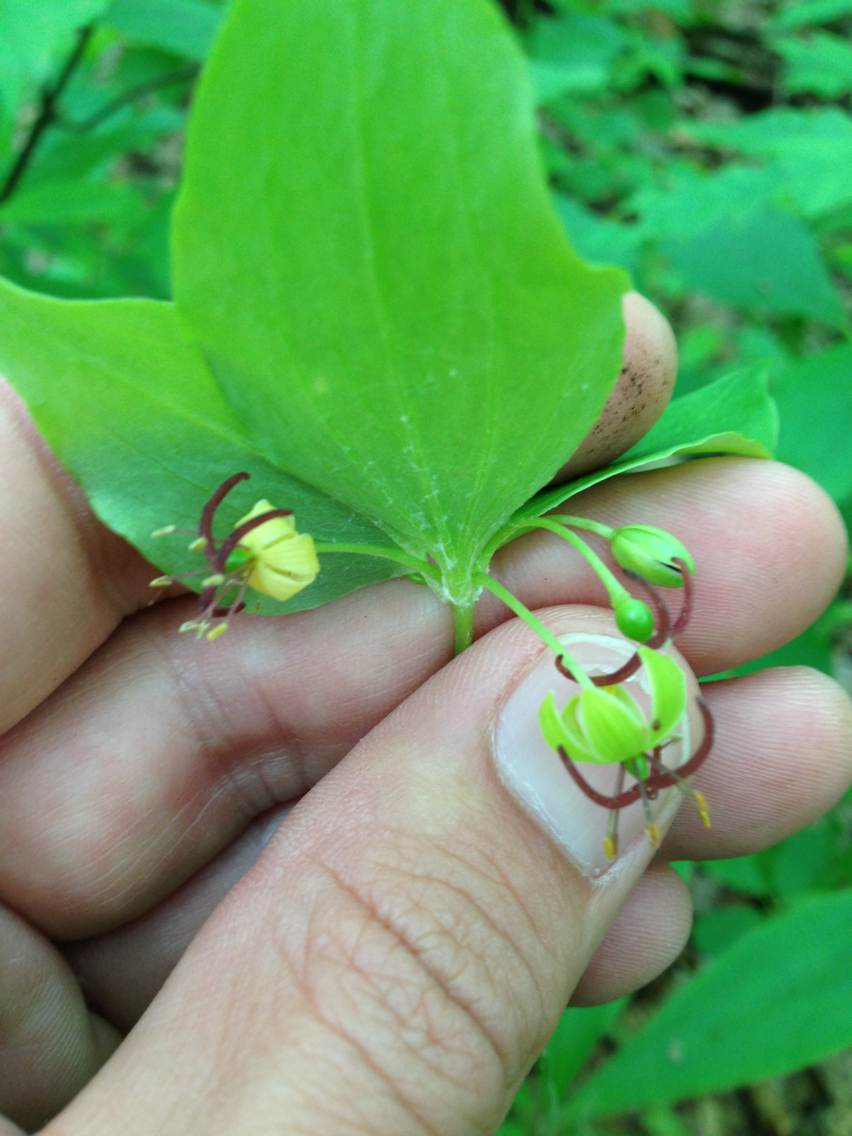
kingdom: Plantae
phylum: Tracheophyta
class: Liliopsida
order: Liliales
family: Liliaceae
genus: Medeola
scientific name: Medeola virginiana
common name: Indian cucumber-root
